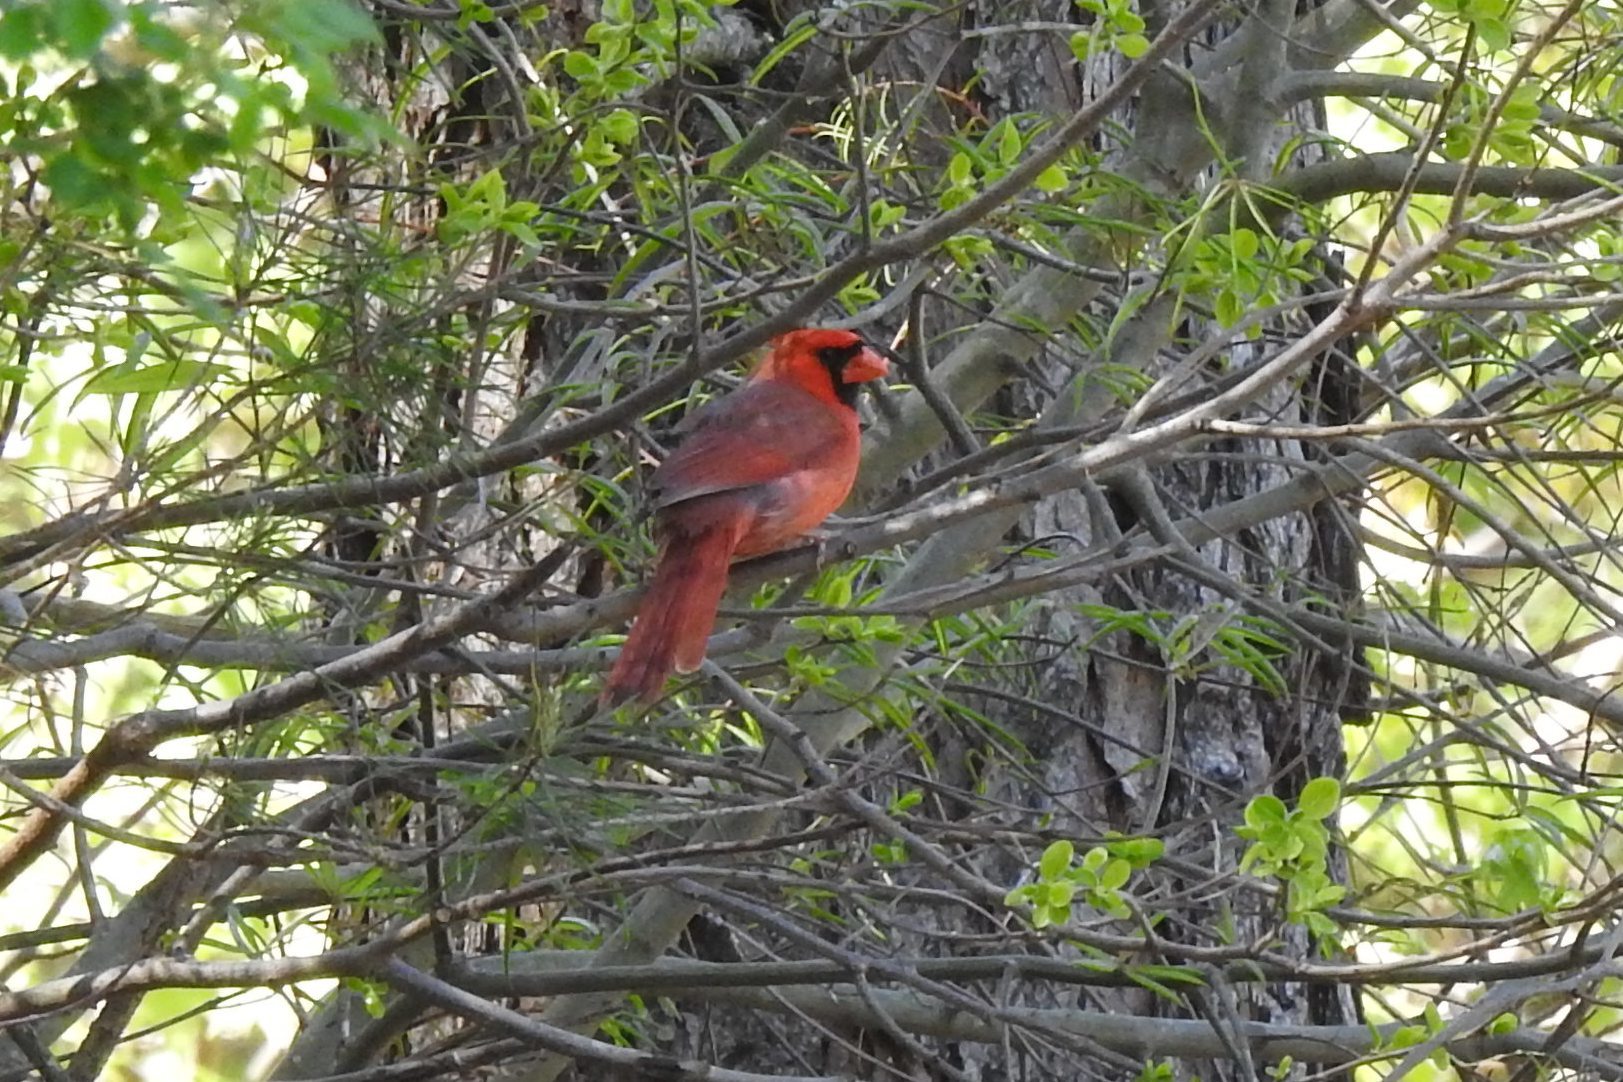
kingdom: Animalia
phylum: Chordata
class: Aves
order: Passeriformes
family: Cardinalidae
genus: Cardinalis
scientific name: Cardinalis cardinalis
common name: Northern cardinal
